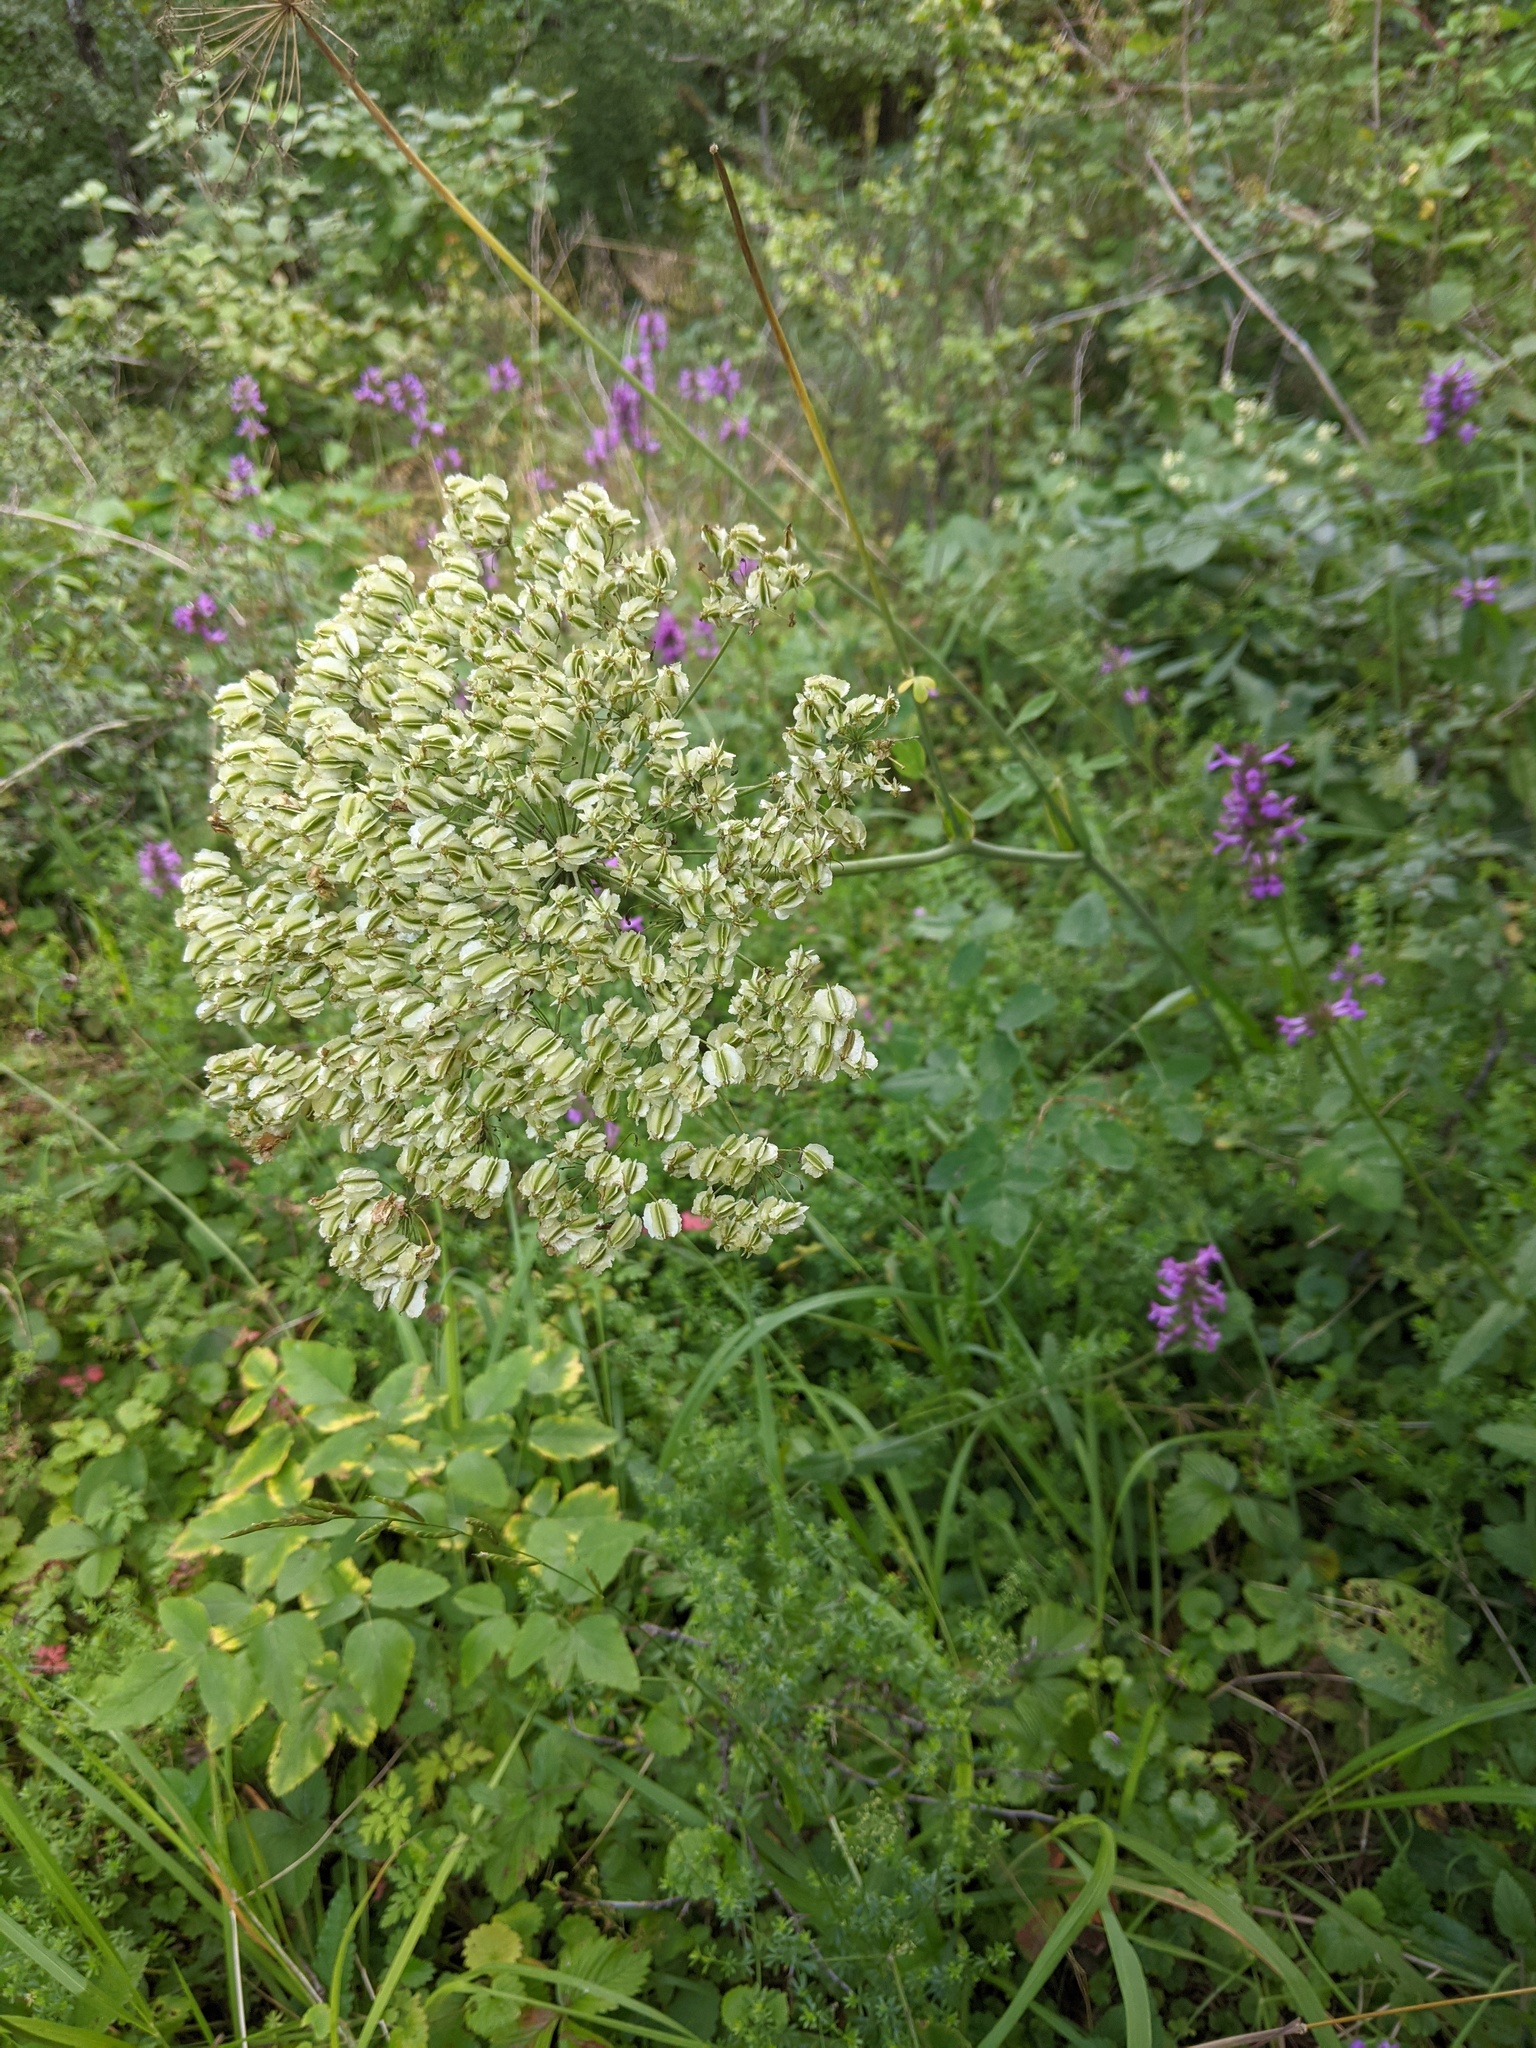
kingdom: Plantae
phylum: Tracheophyta
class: Magnoliopsida
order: Apiales
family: Apiaceae
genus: Laserpitium
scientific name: Laserpitium latifolium
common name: Broadleaf sermountain
